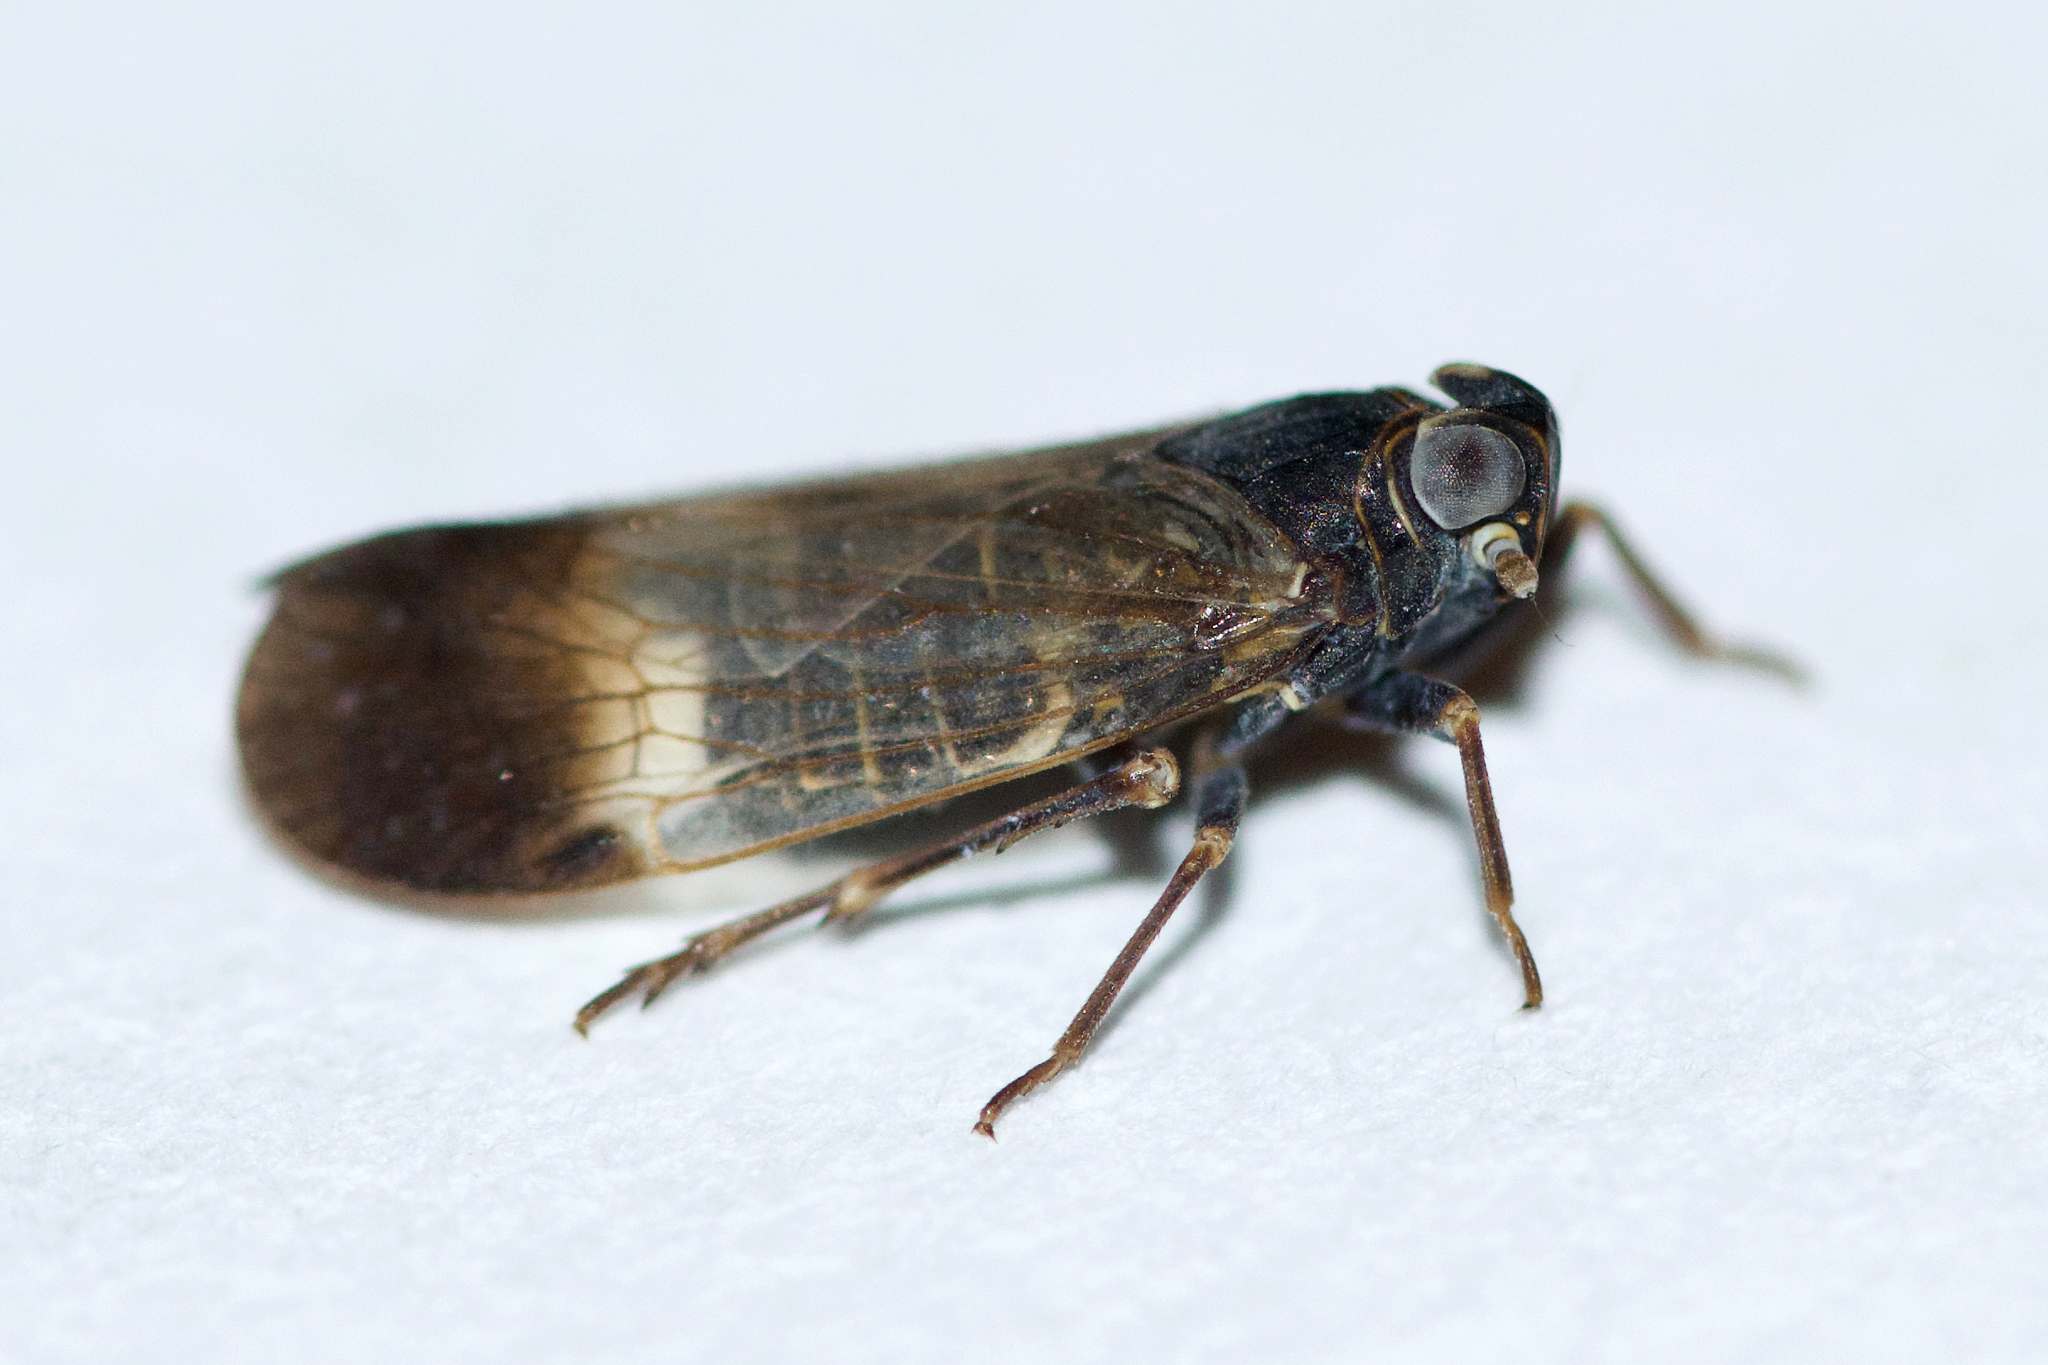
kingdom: Animalia
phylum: Arthropoda
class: Insecta
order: Hemiptera
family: Cixiidae
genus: Melanoliarus
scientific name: Melanoliarus humilis
